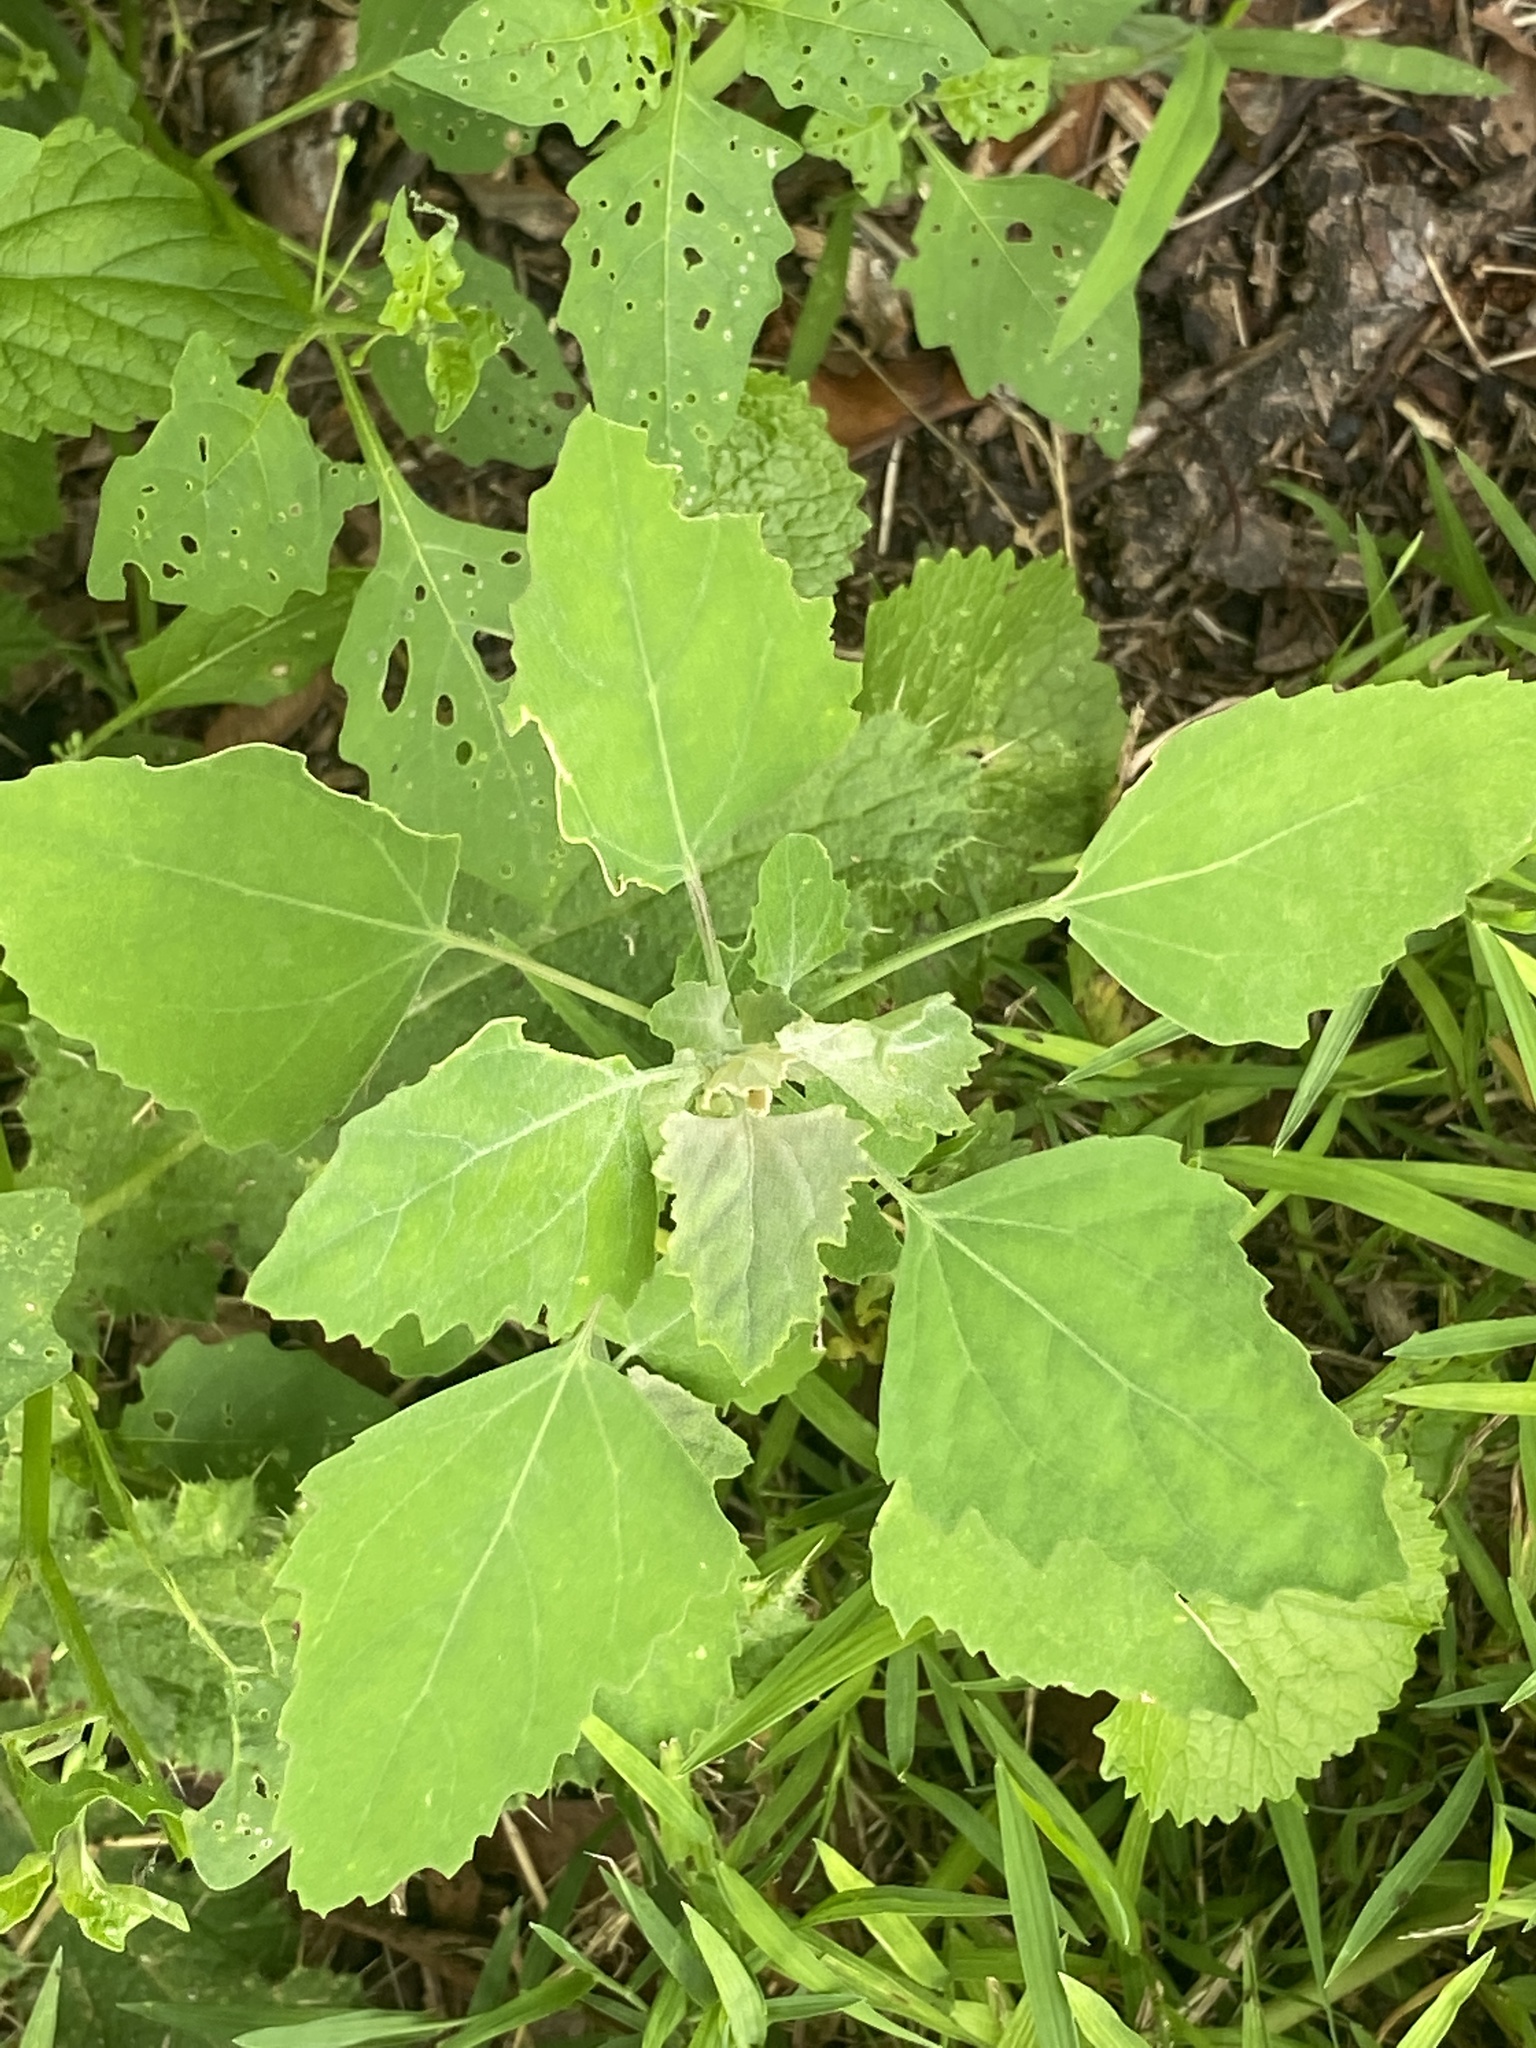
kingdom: Plantae
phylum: Tracheophyta
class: Magnoliopsida
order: Caryophyllales
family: Amaranthaceae
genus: Chenopodium
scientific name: Chenopodium album
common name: Fat-hen
